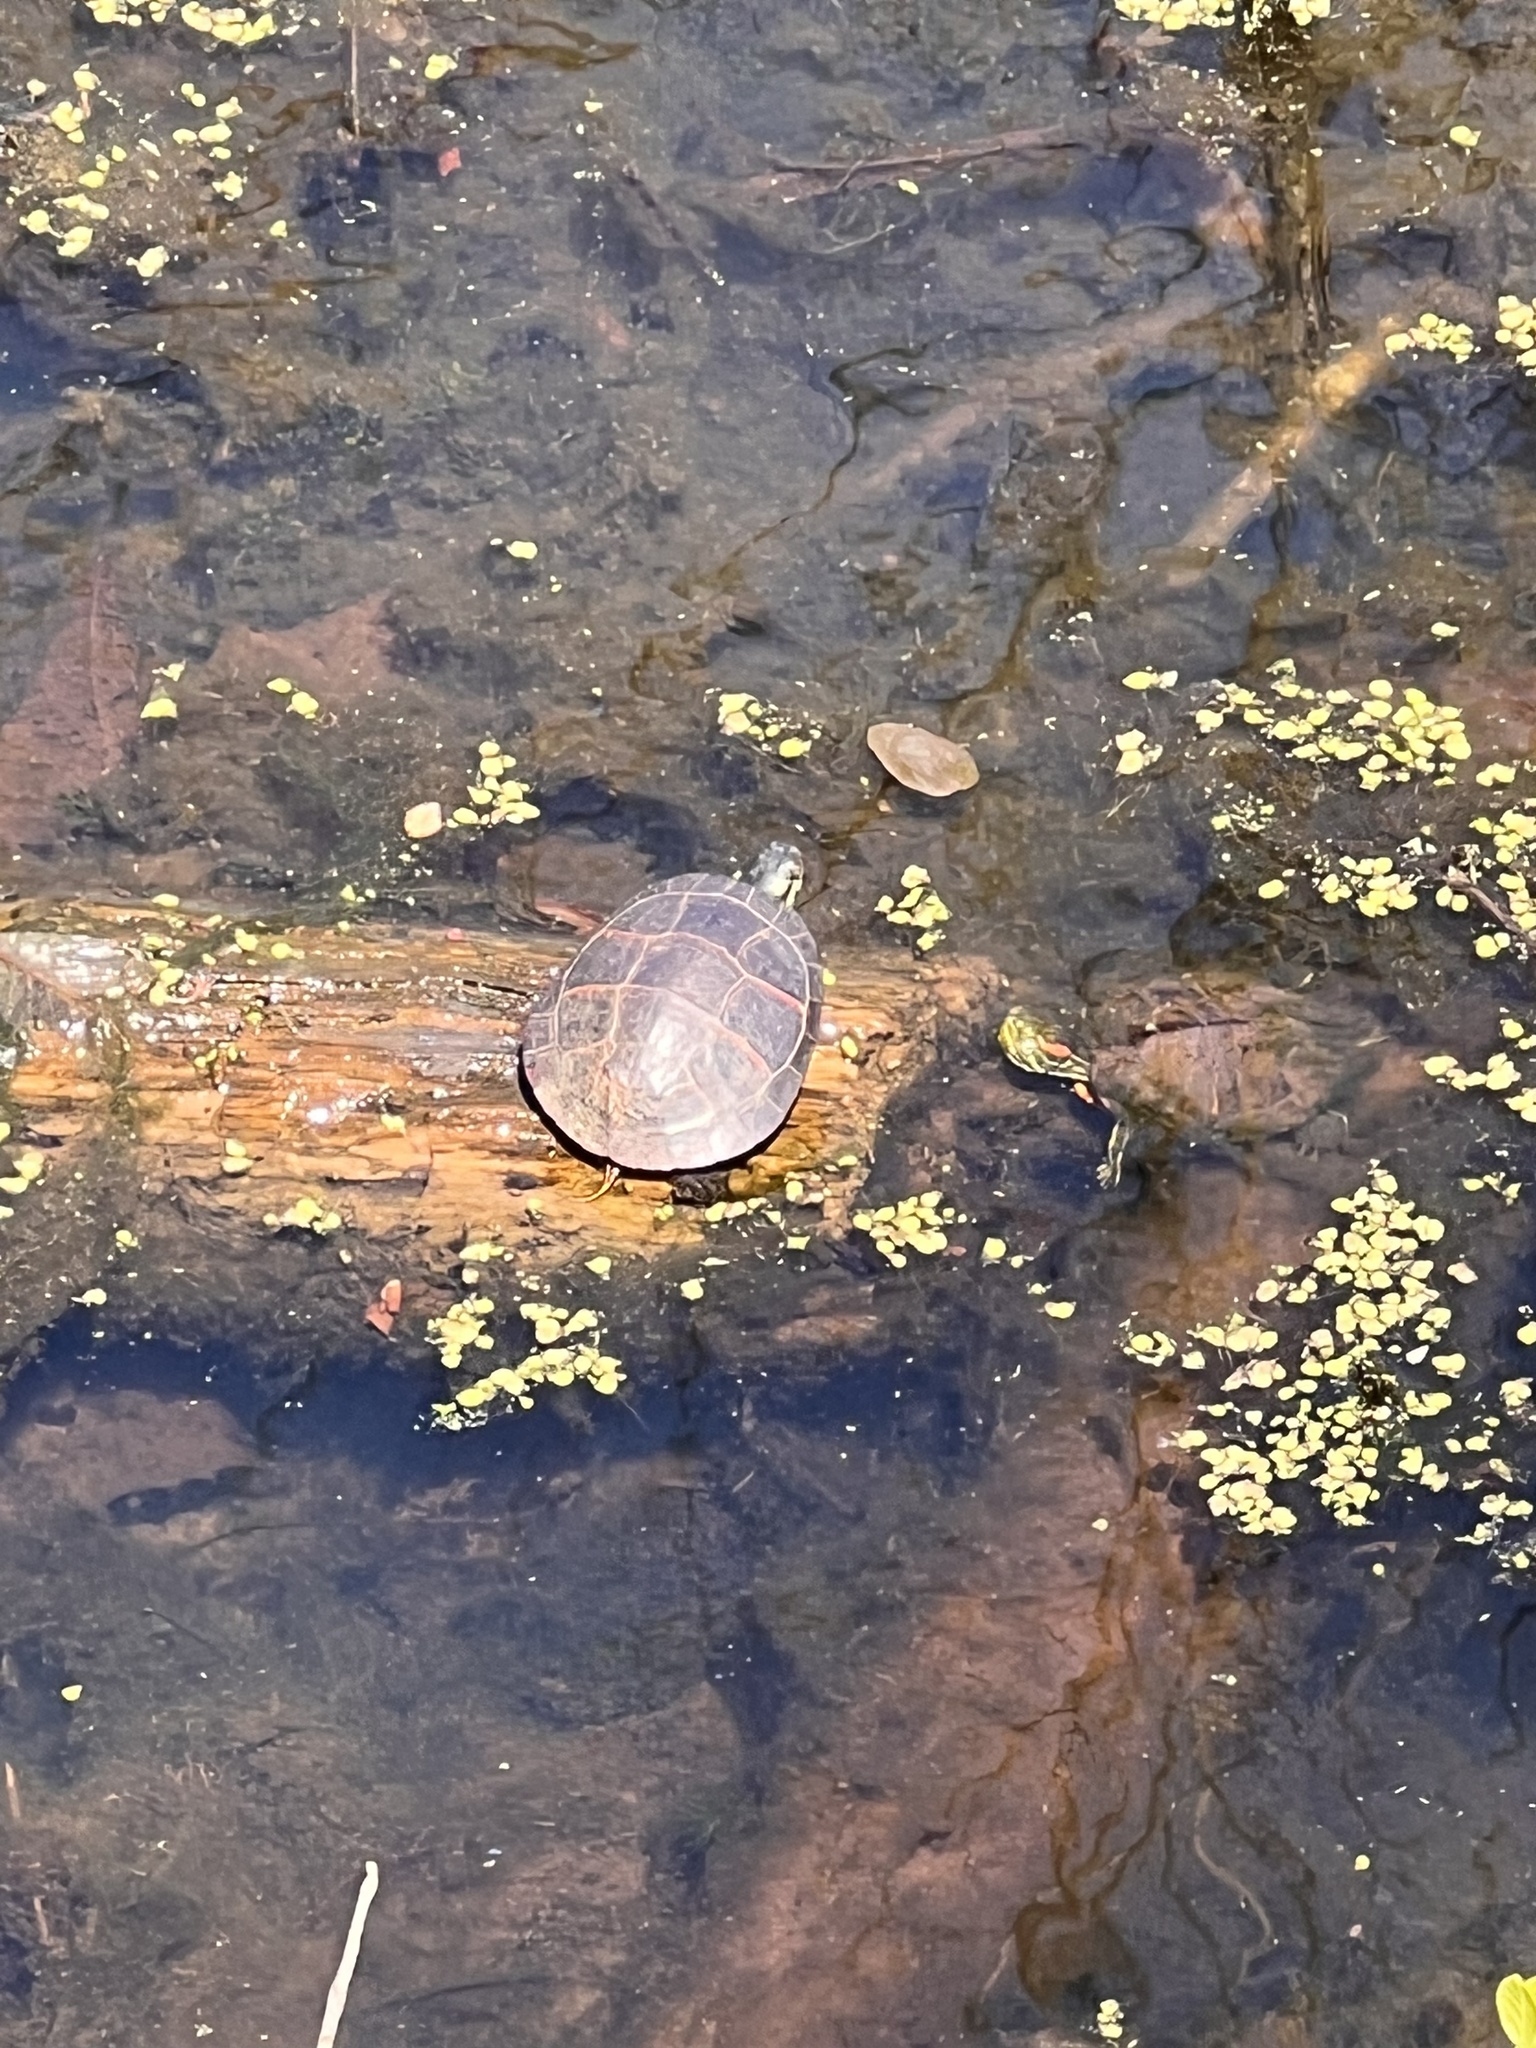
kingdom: Animalia
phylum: Chordata
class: Testudines
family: Emydidae
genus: Chrysemys
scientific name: Chrysemys picta
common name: Painted turtle
